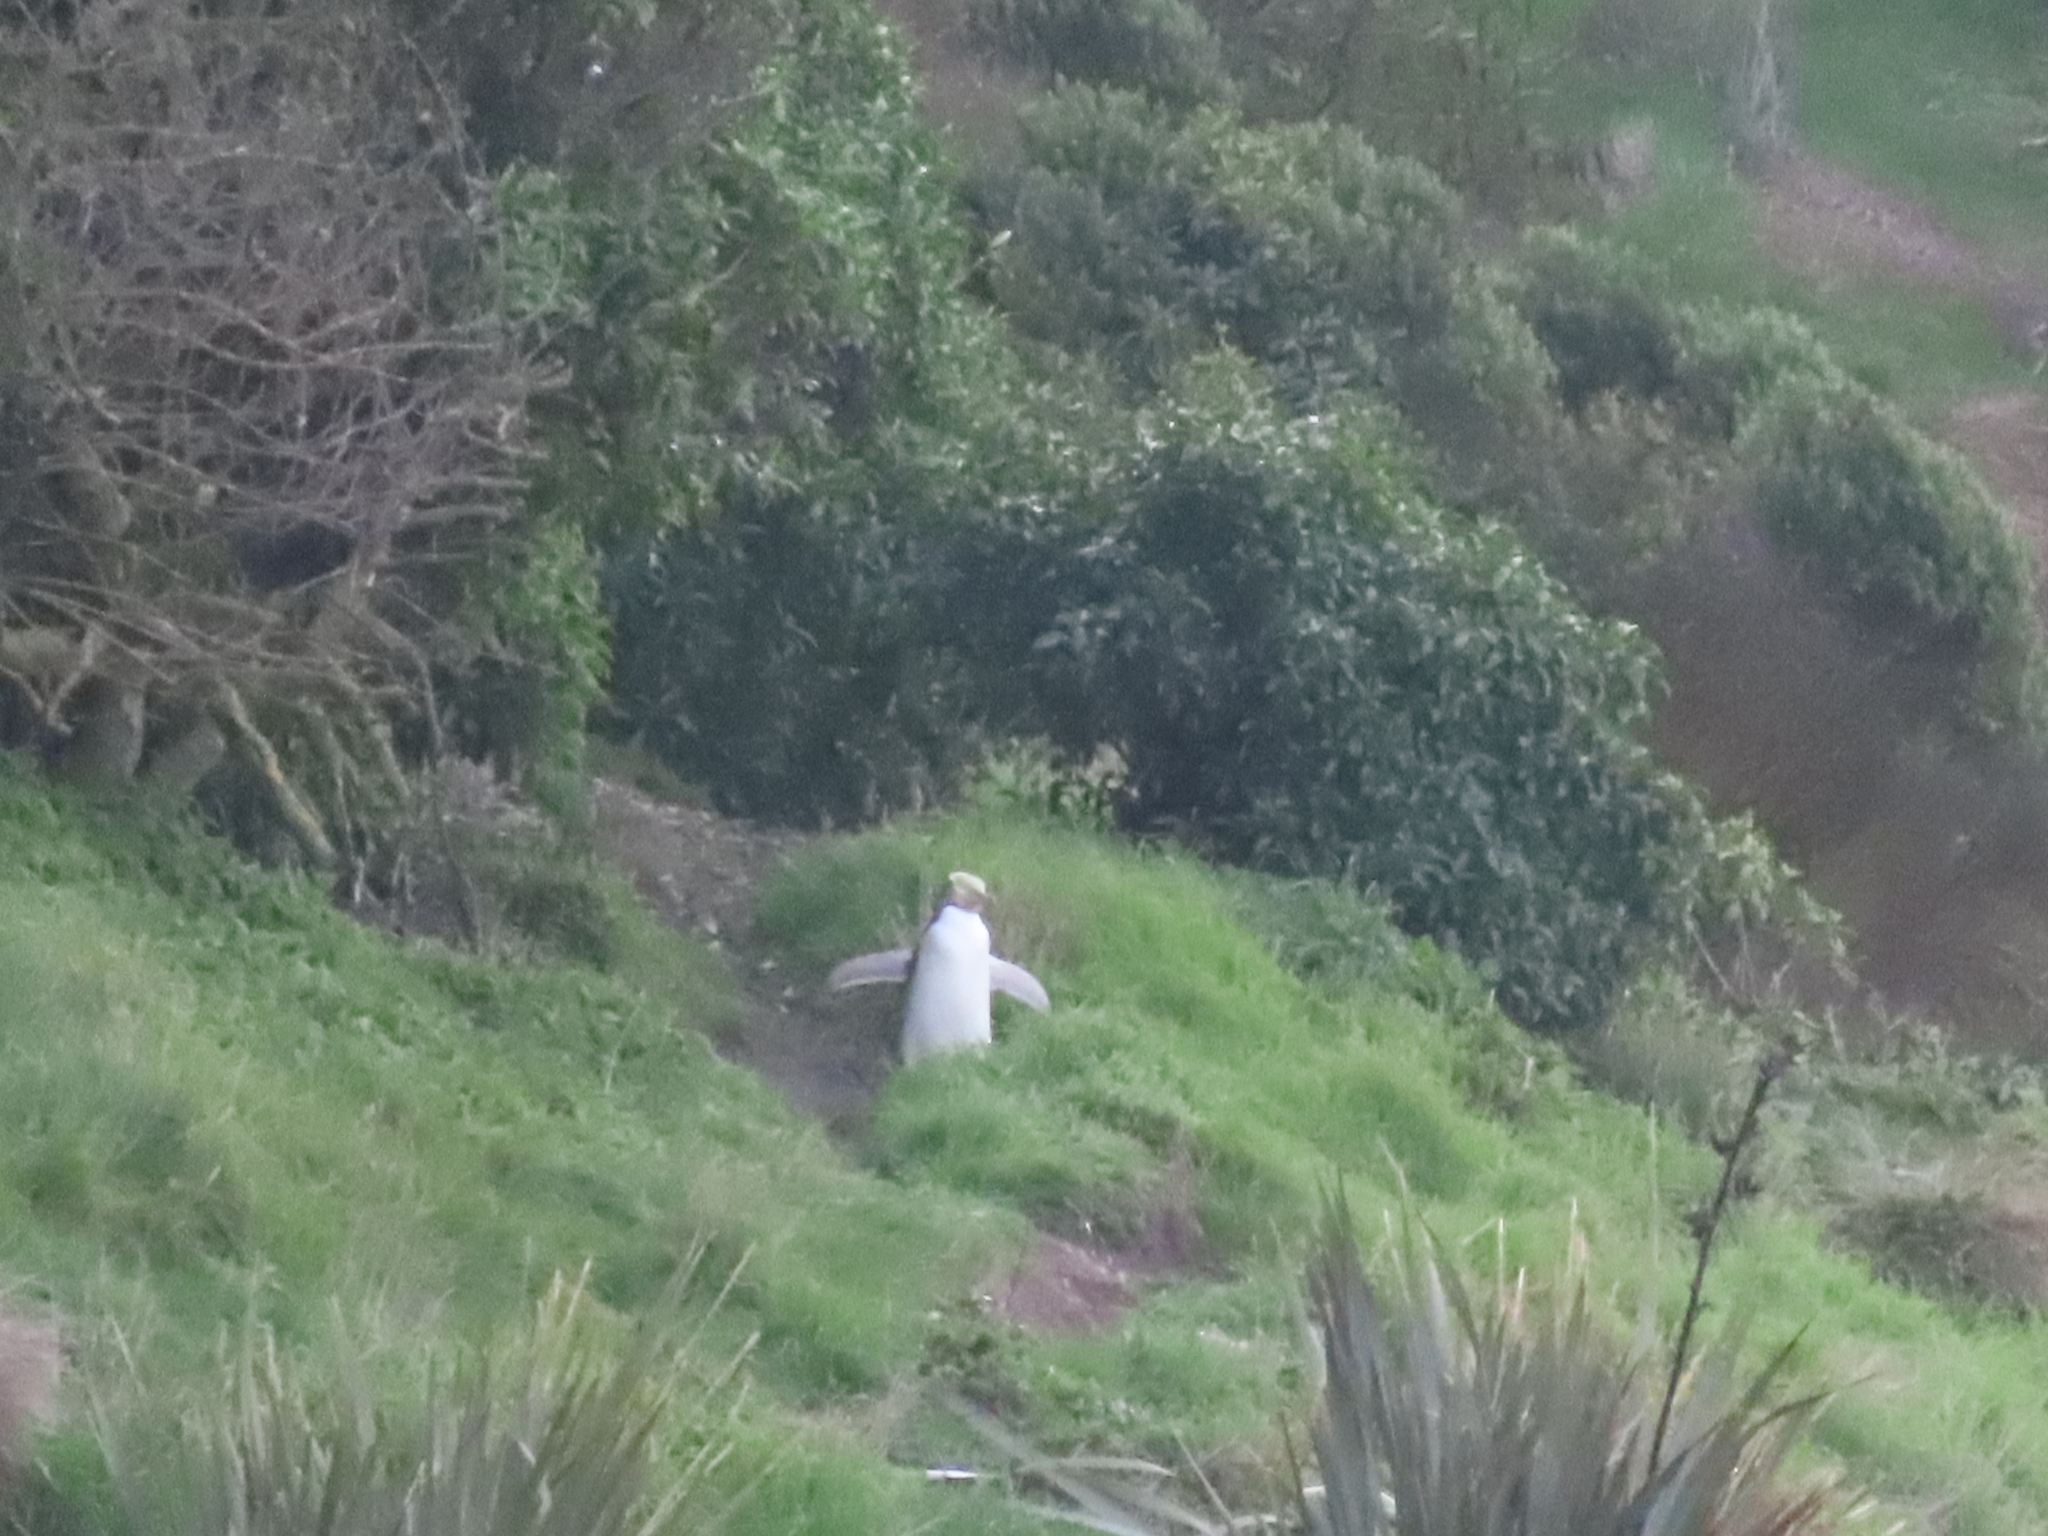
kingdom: Animalia
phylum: Chordata
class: Aves
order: Sphenisciformes
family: Spheniscidae
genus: Megadyptes
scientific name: Megadyptes antipodes
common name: Yellow-eyed penguin
